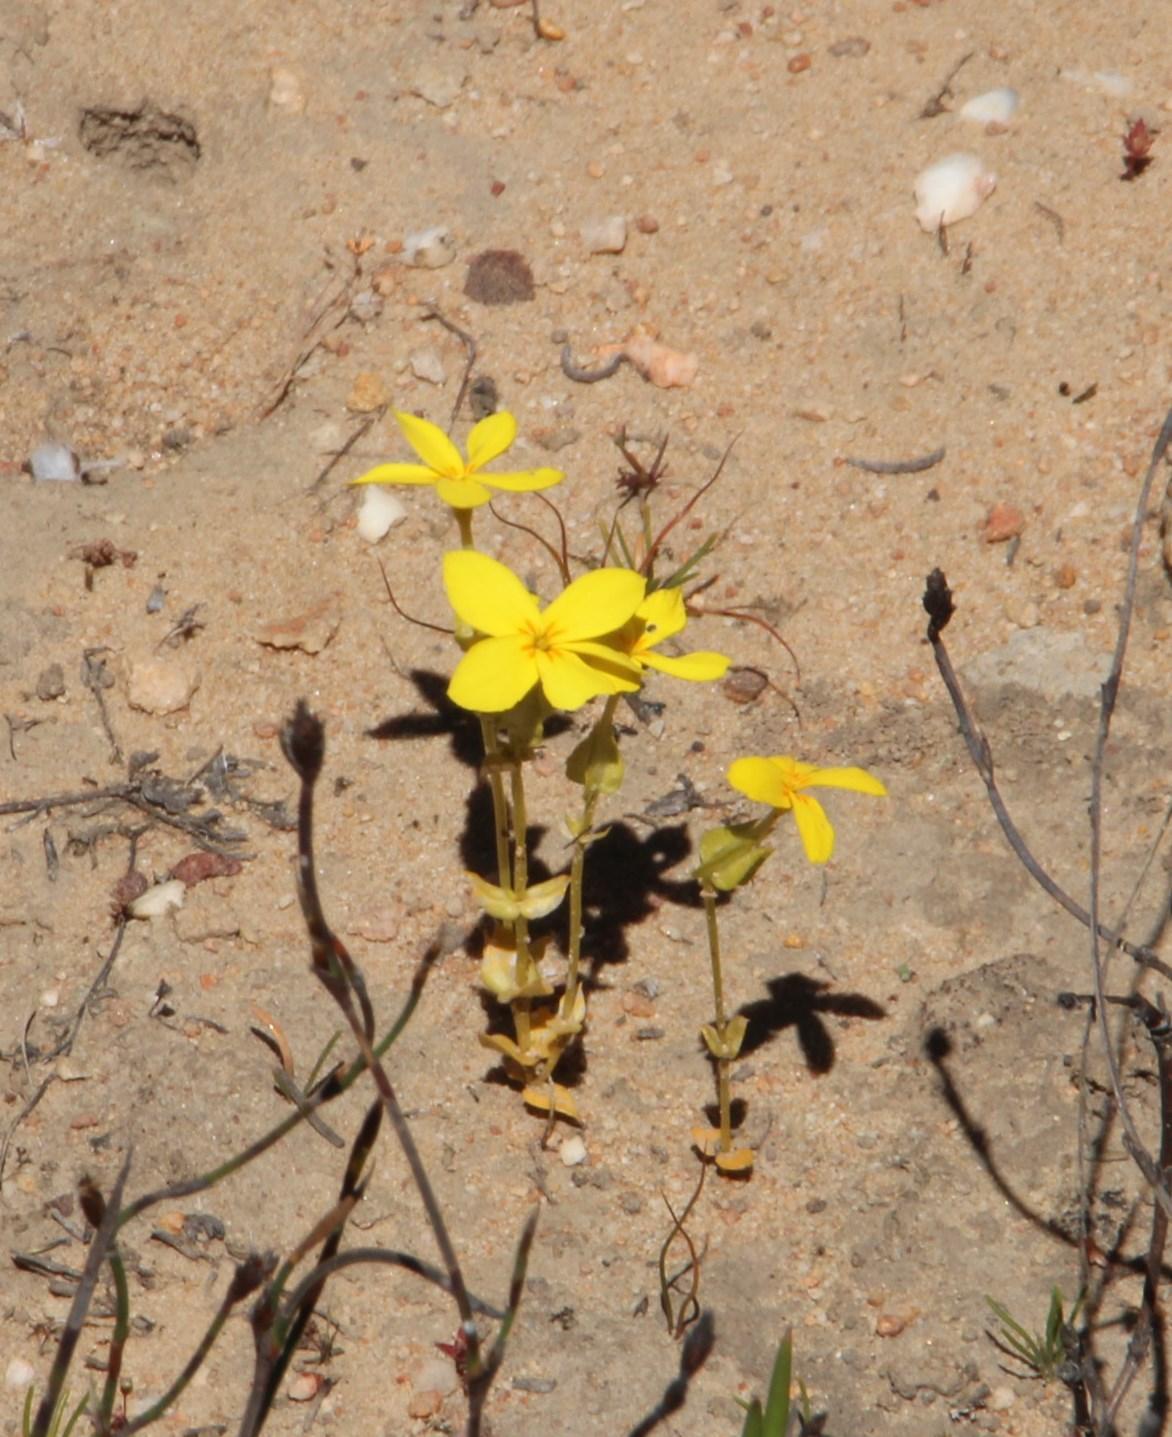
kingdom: Plantae
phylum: Tracheophyta
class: Magnoliopsida
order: Gentianales
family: Gentianaceae
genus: Sebaea
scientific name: Sebaea exacoides
